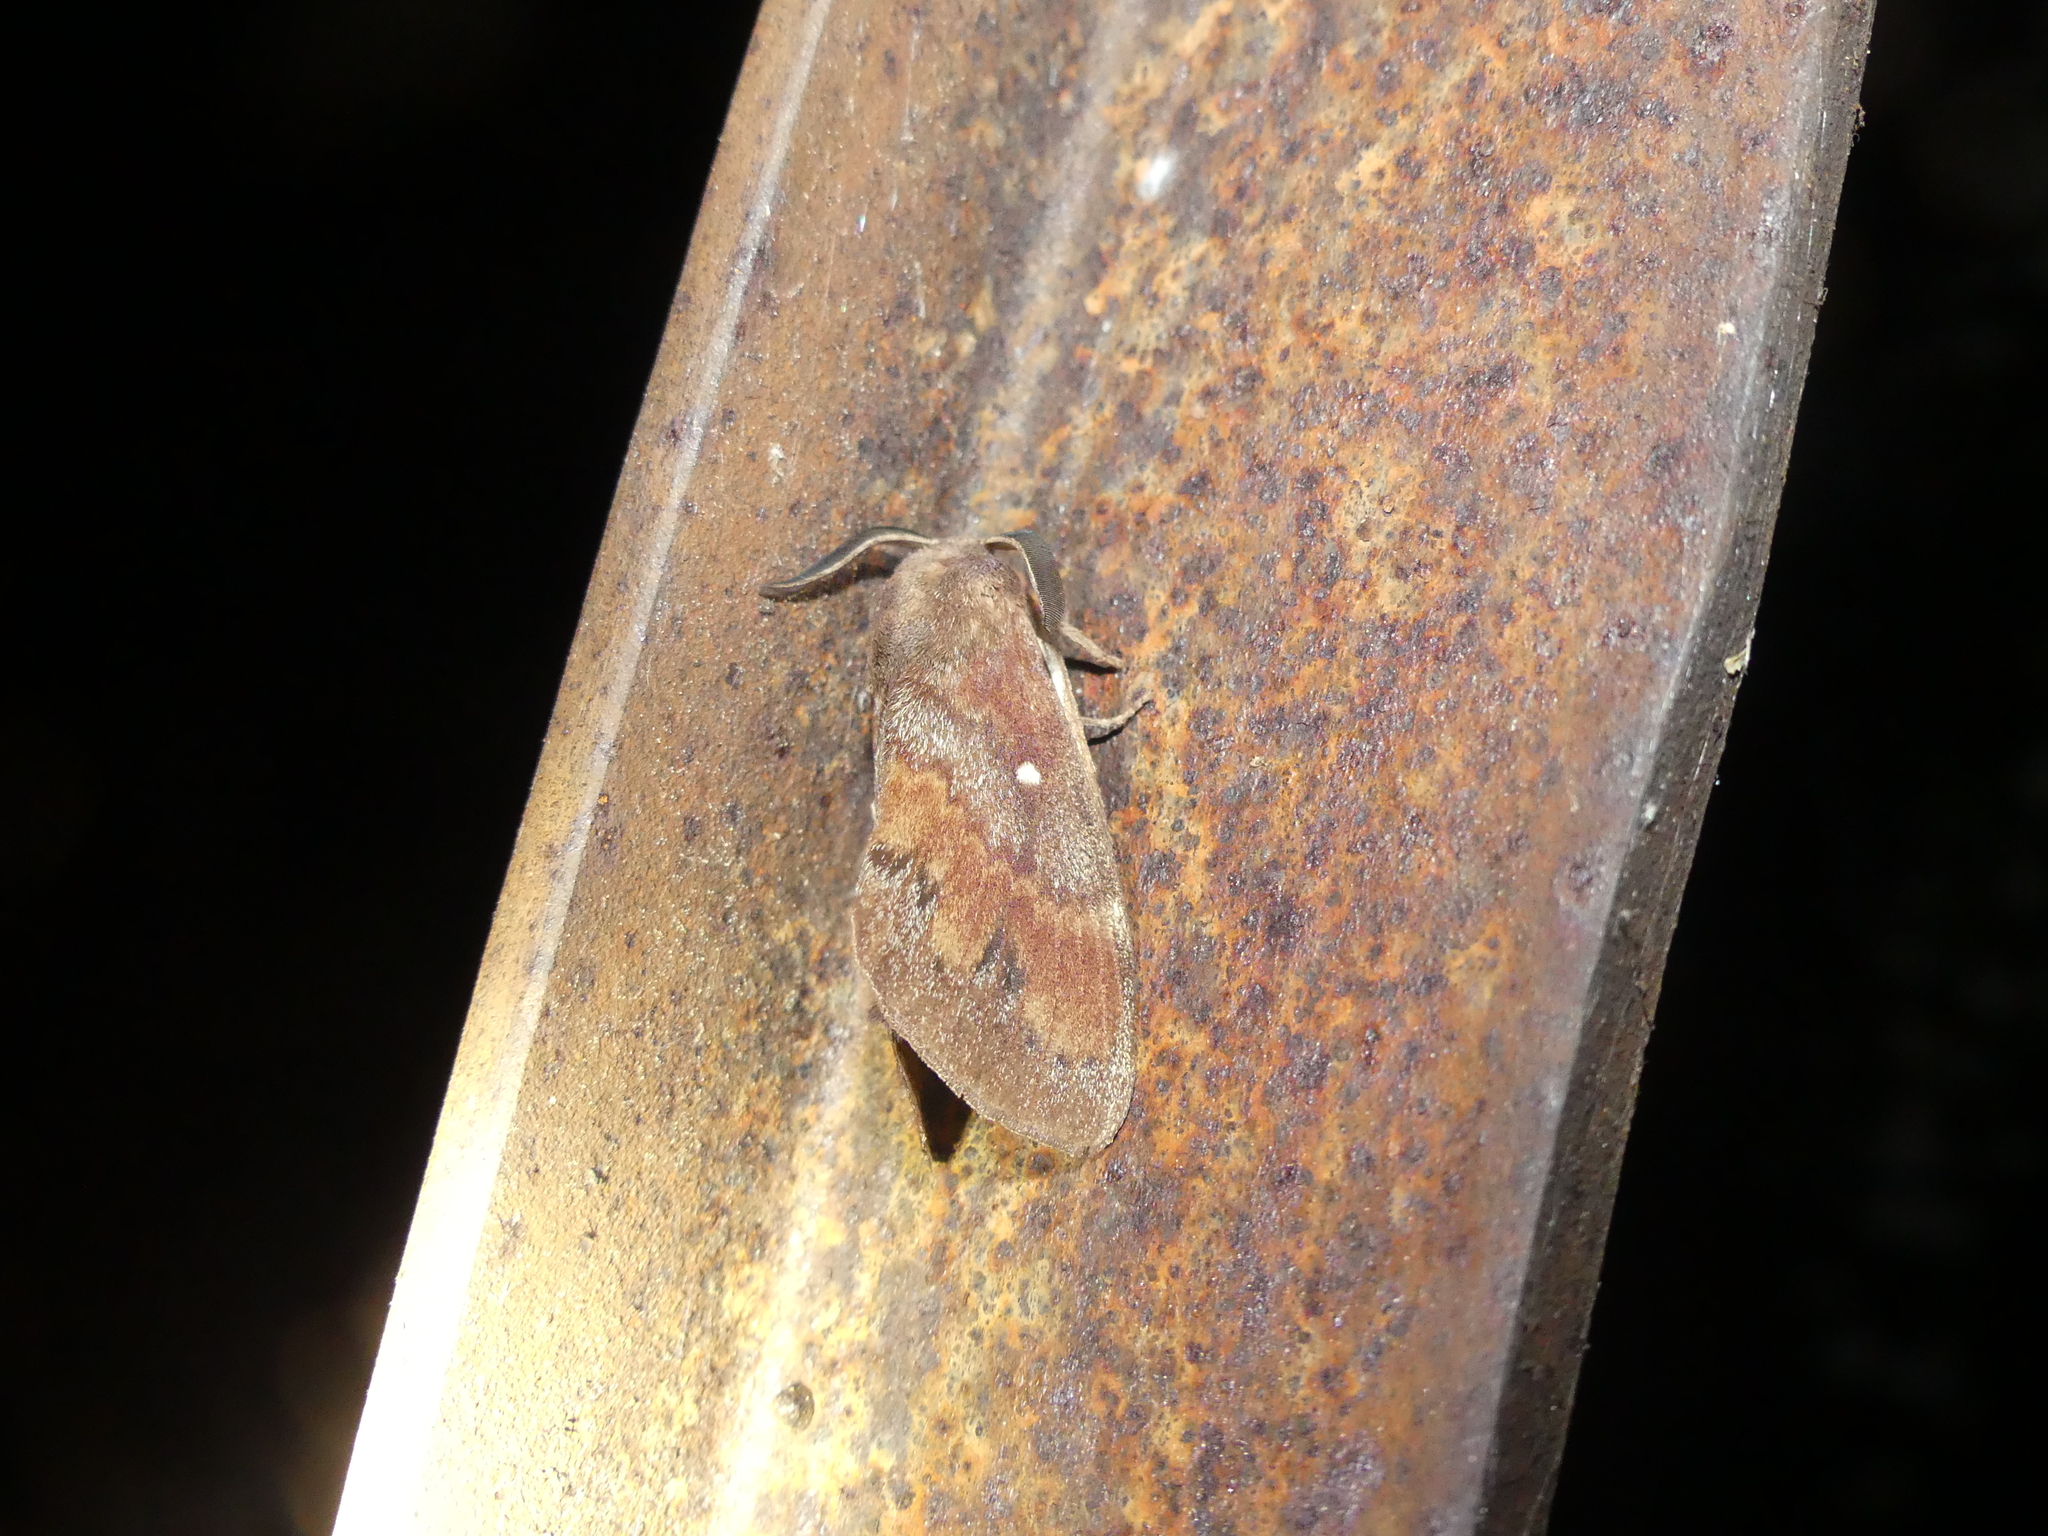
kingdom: Animalia
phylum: Arthropoda
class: Insecta
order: Lepidoptera
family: Lasiocampidae
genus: Dendrolimus
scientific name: Dendrolimus pini
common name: Pine-tree lappet
